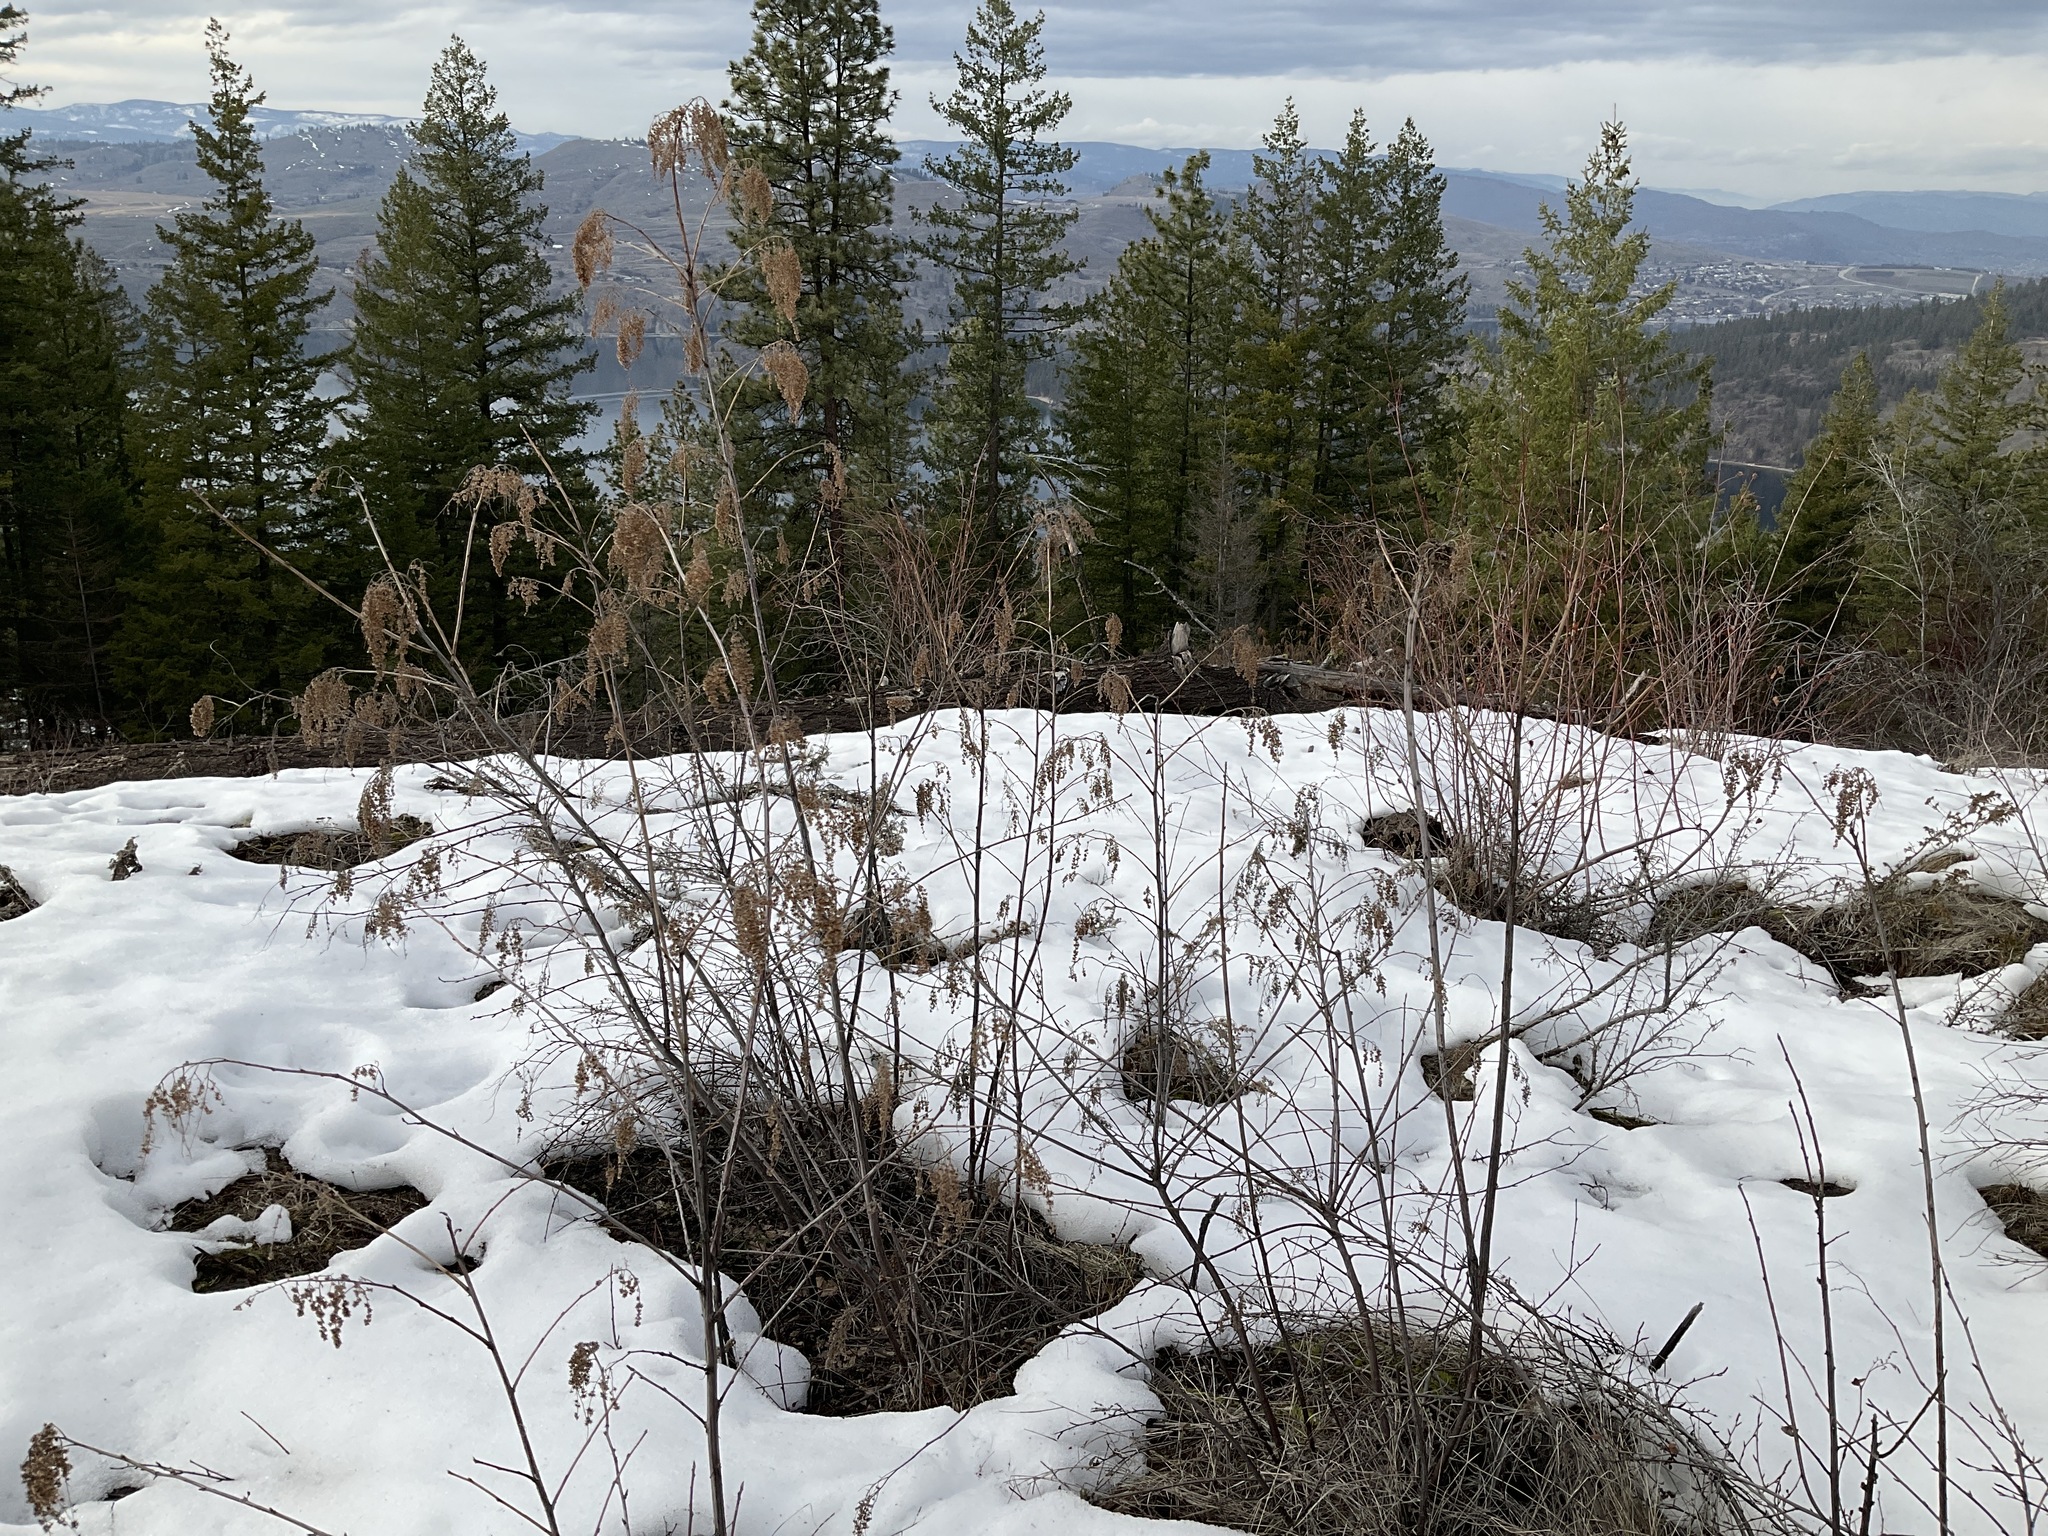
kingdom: Plantae
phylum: Tracheophyta
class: Magnoliopsida
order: Rosales
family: Rosaceae
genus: Holodiscus
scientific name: Holodiscus discolor
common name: Oceanspray
